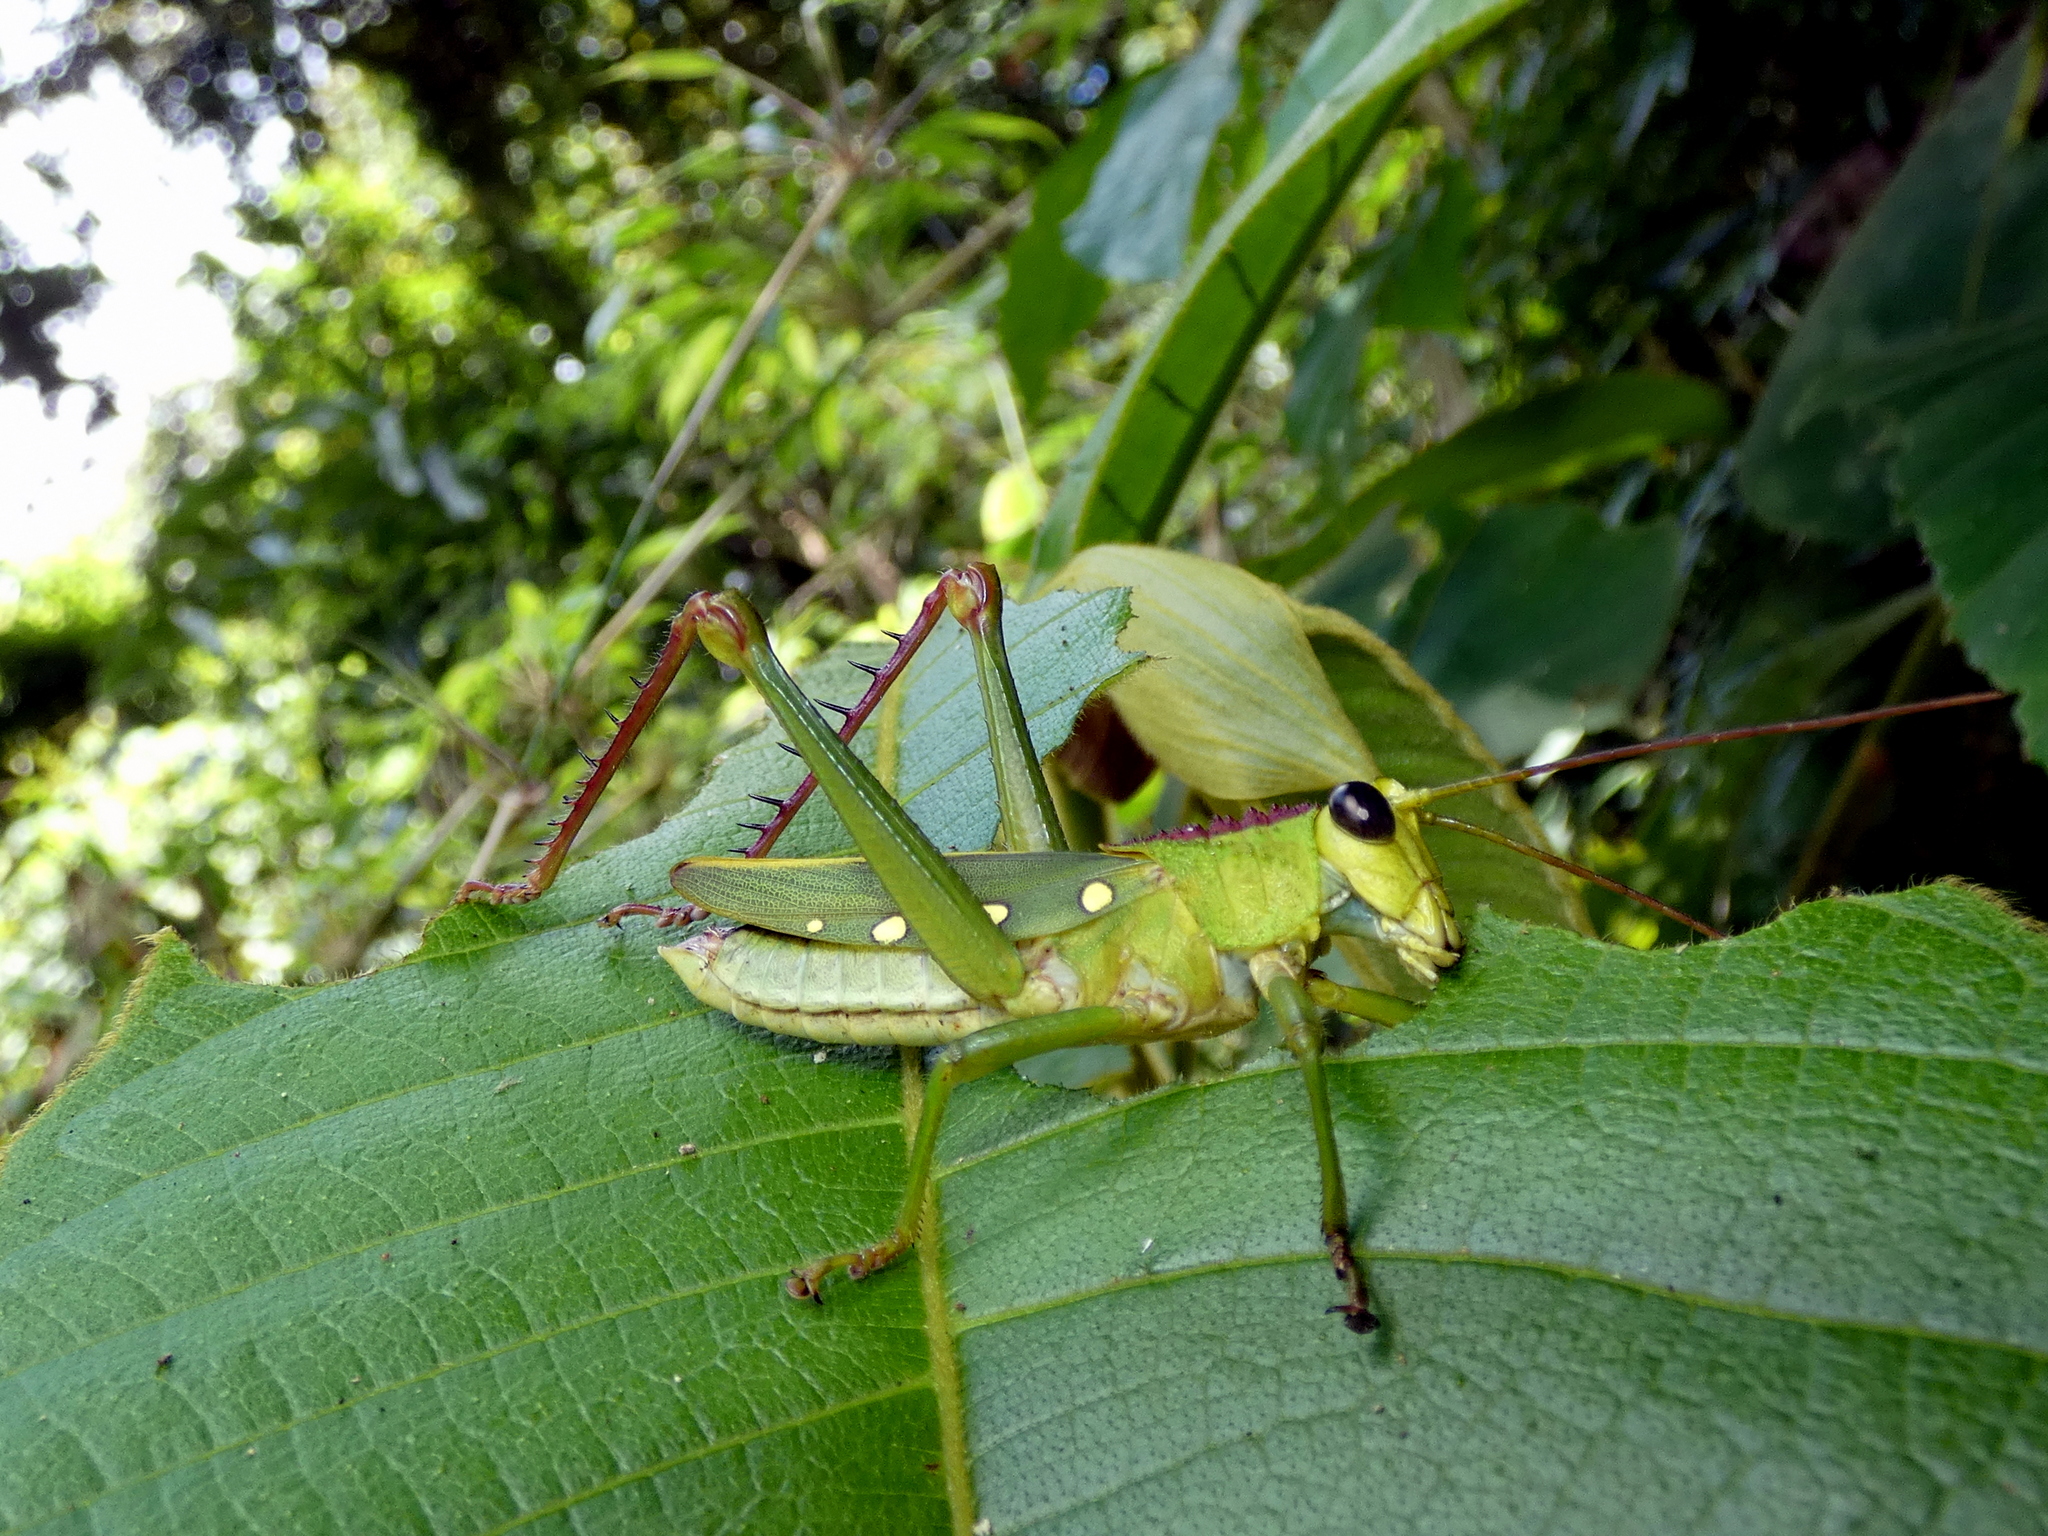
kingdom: Animalia
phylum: Arthropoda
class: Insecta
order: Orthoptera
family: Romaleidae
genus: Agriacris
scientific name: Agriacris tricristata
